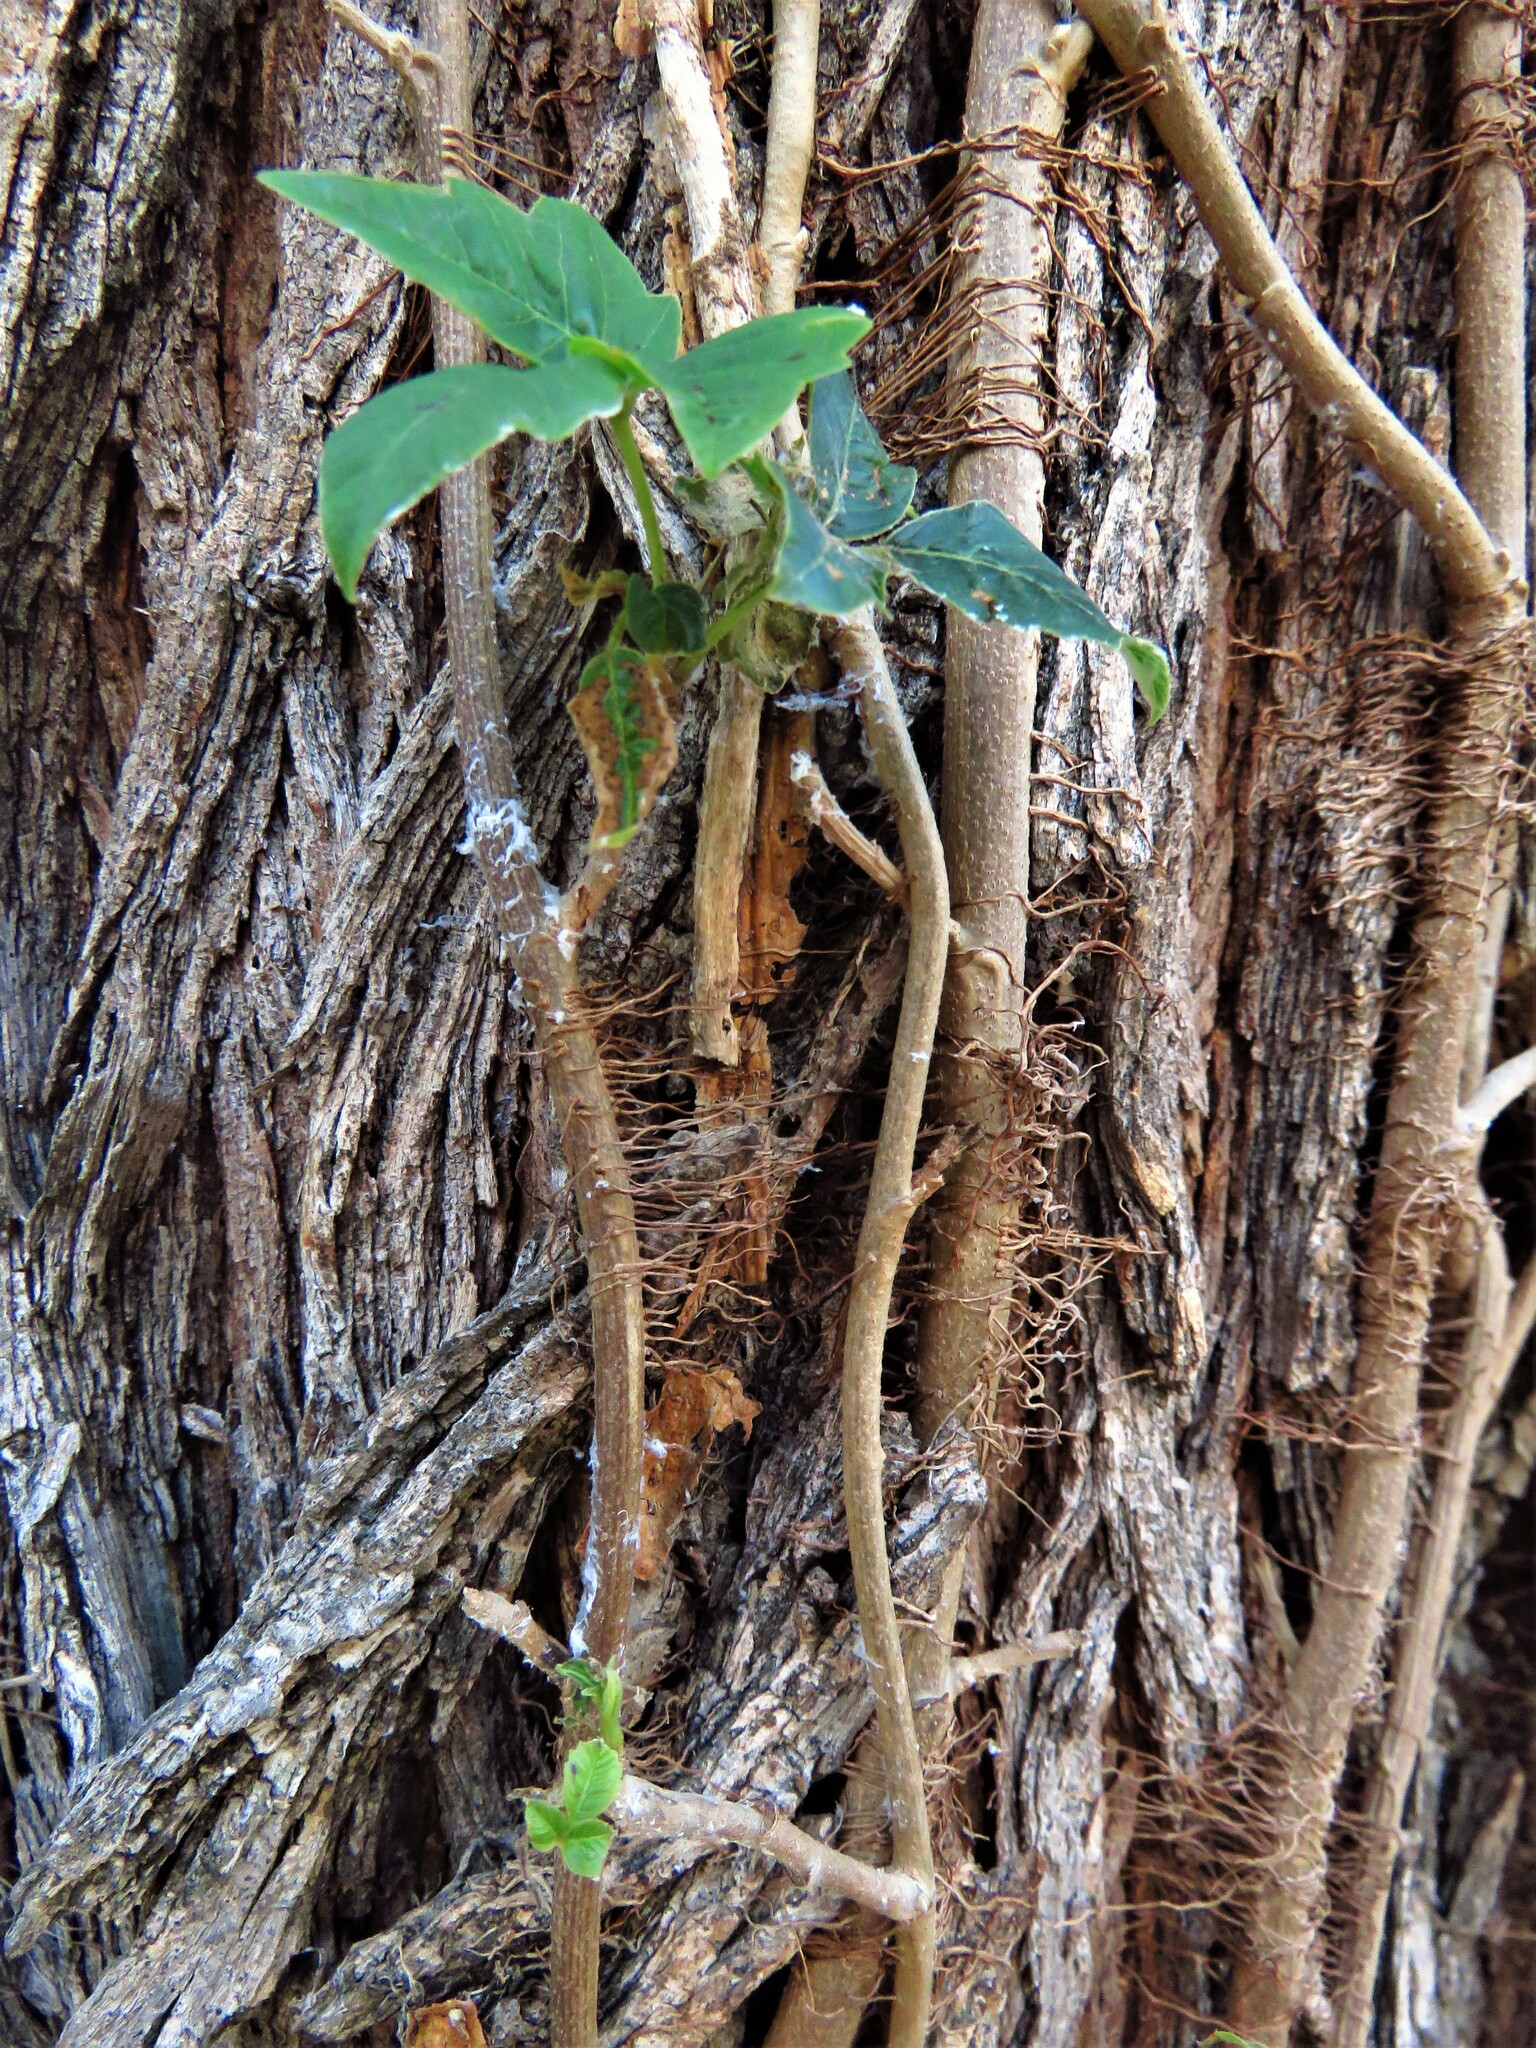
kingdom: Plantae
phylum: Tracheophyta
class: Magnoliopsida
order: Sapindales
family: Anacardiaceae
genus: Toxicodendron
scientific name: Toxicodendron radicans
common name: Poison ivy
